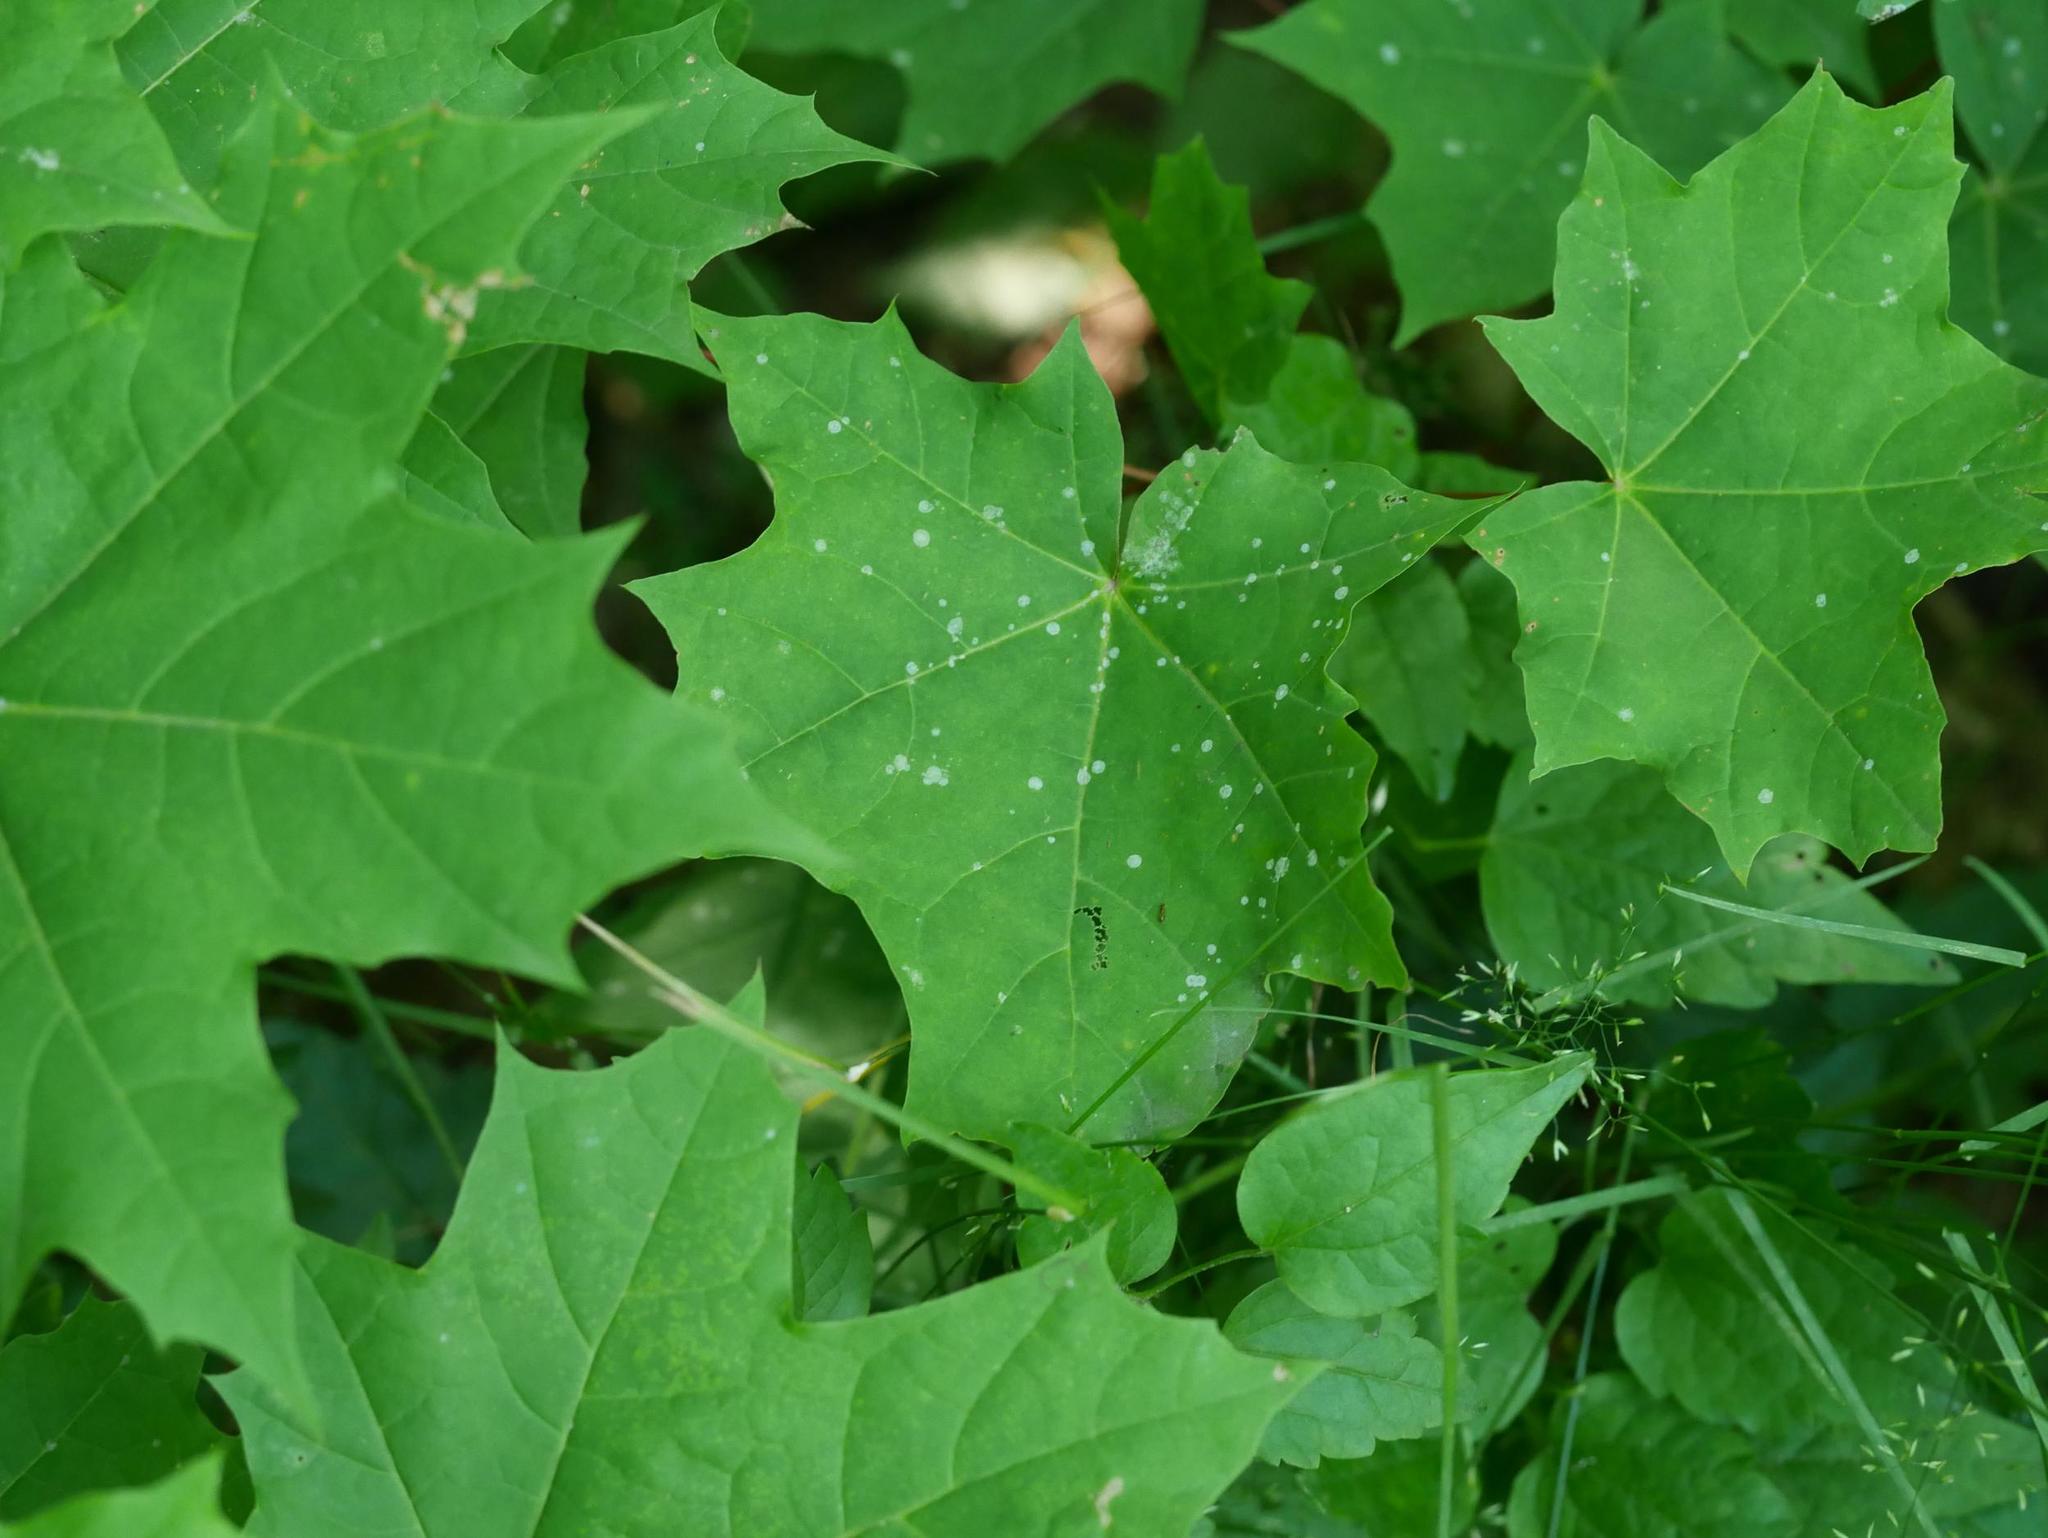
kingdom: Plantae
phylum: Tracheophyta
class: Magnoliopsida
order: Sapindales
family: Sapindaceae
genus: Acer
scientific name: Acer platanoides
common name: Norway maple
